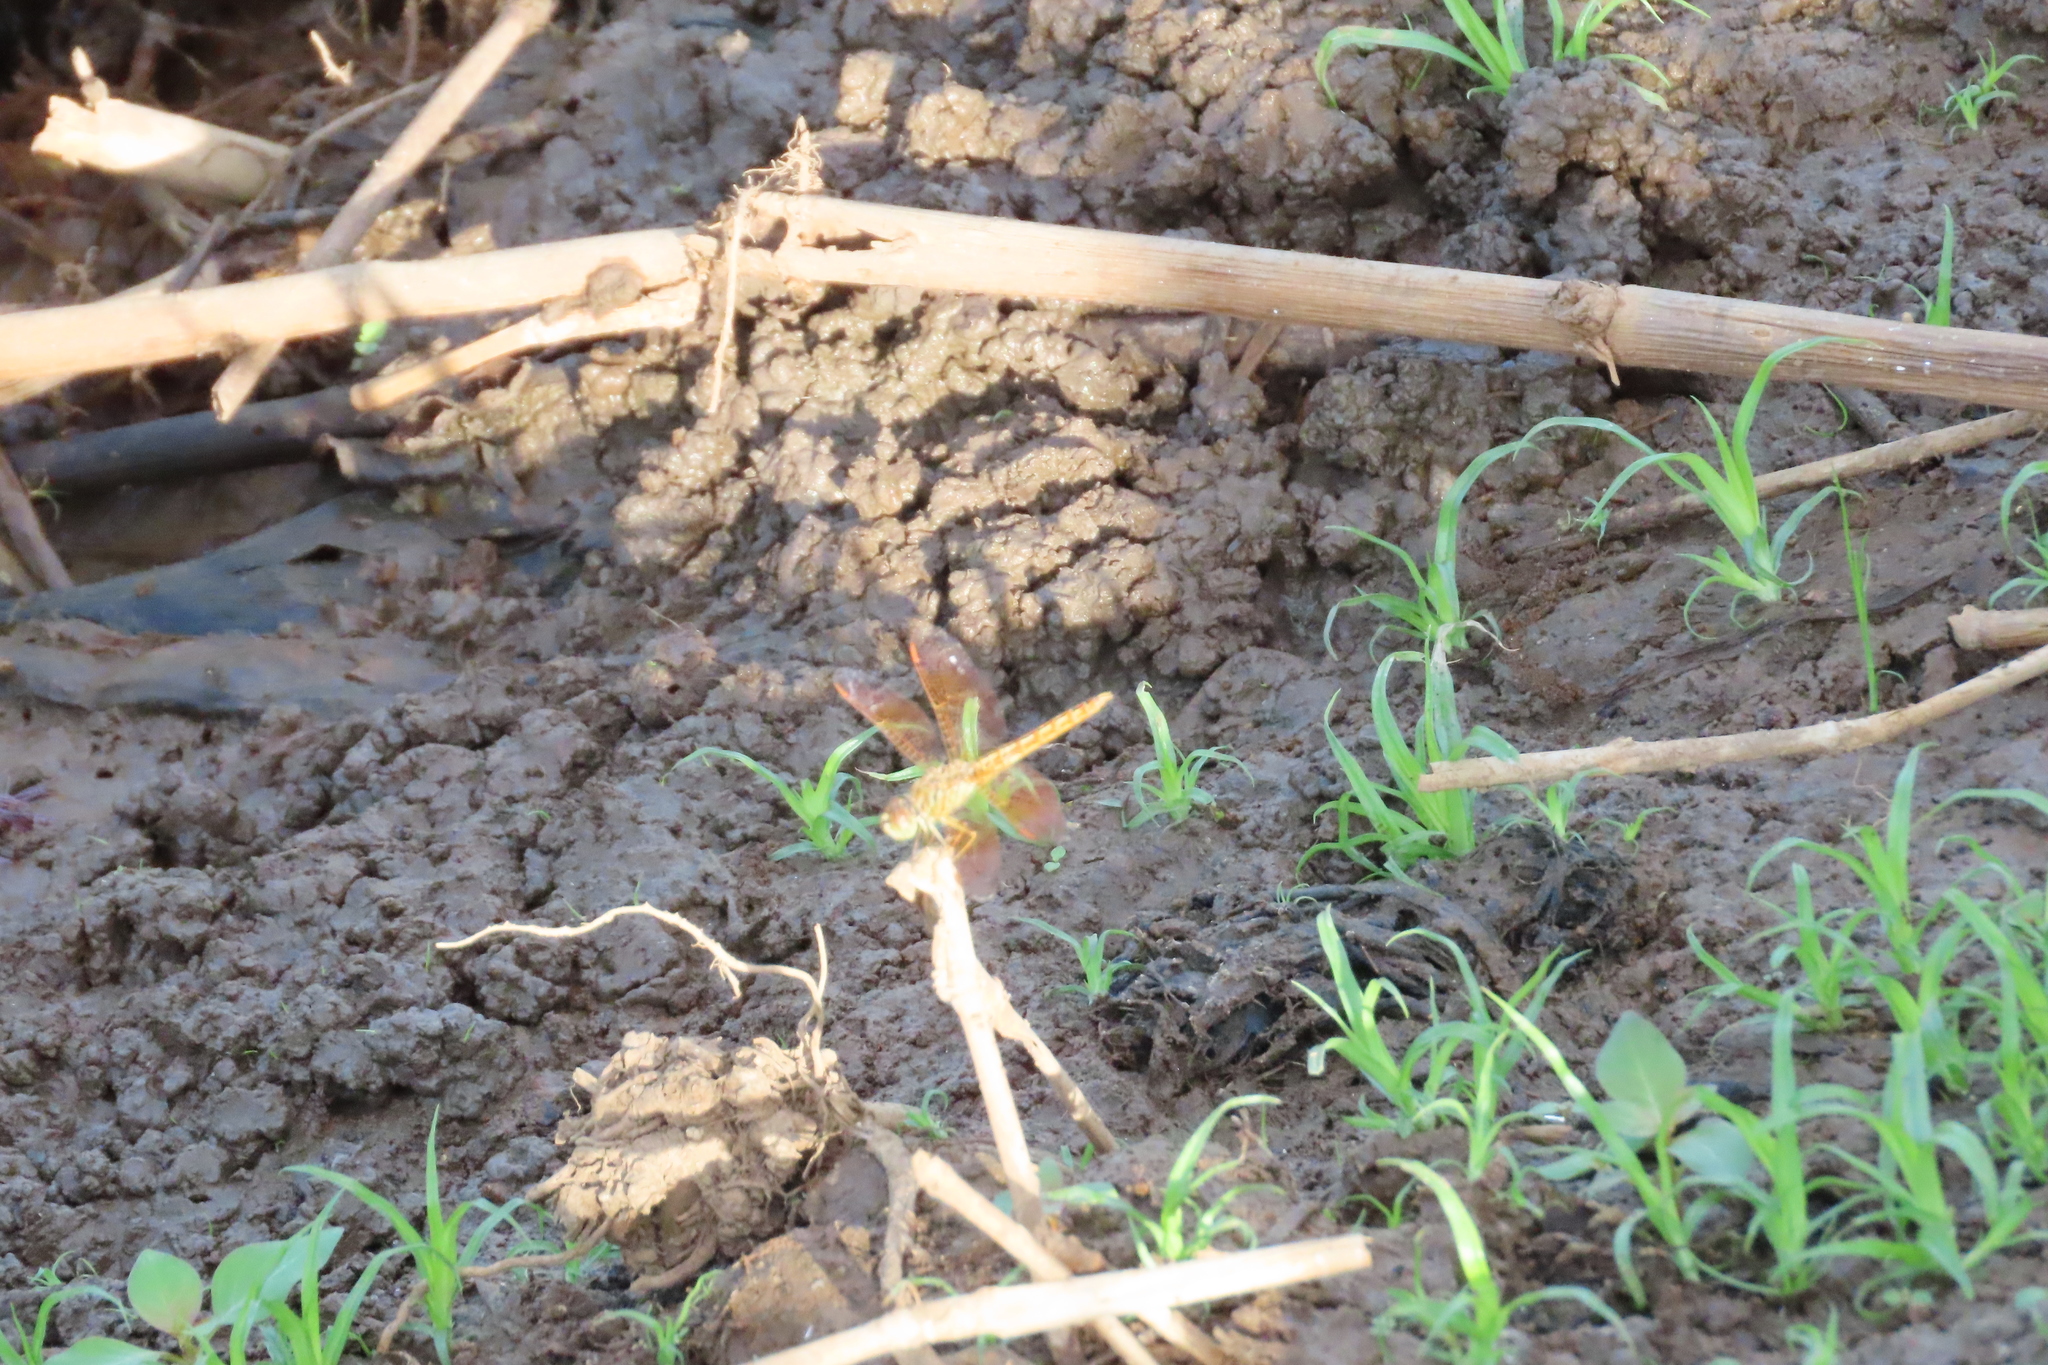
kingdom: Animalia
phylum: Arthropoda
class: Insecta
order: Odonata
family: Libellulidae
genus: Brachythemis
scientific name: Brachythemis contaminata
